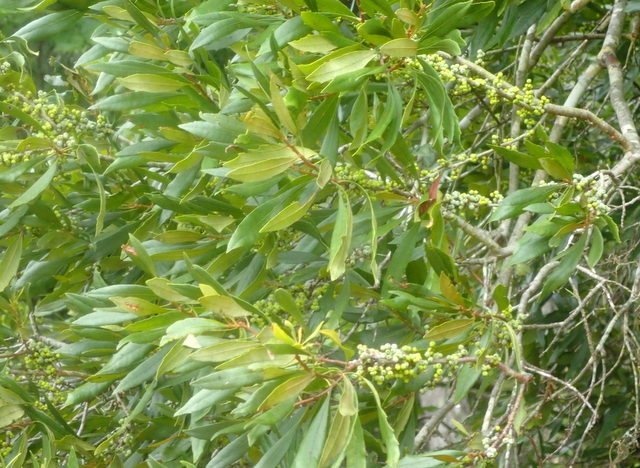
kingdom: Plantae
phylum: Tracheophyta
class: Magnoliopsida
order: Fagales
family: Myricaceae
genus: Morella
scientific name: Morella cerifera
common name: Wax myrtle
